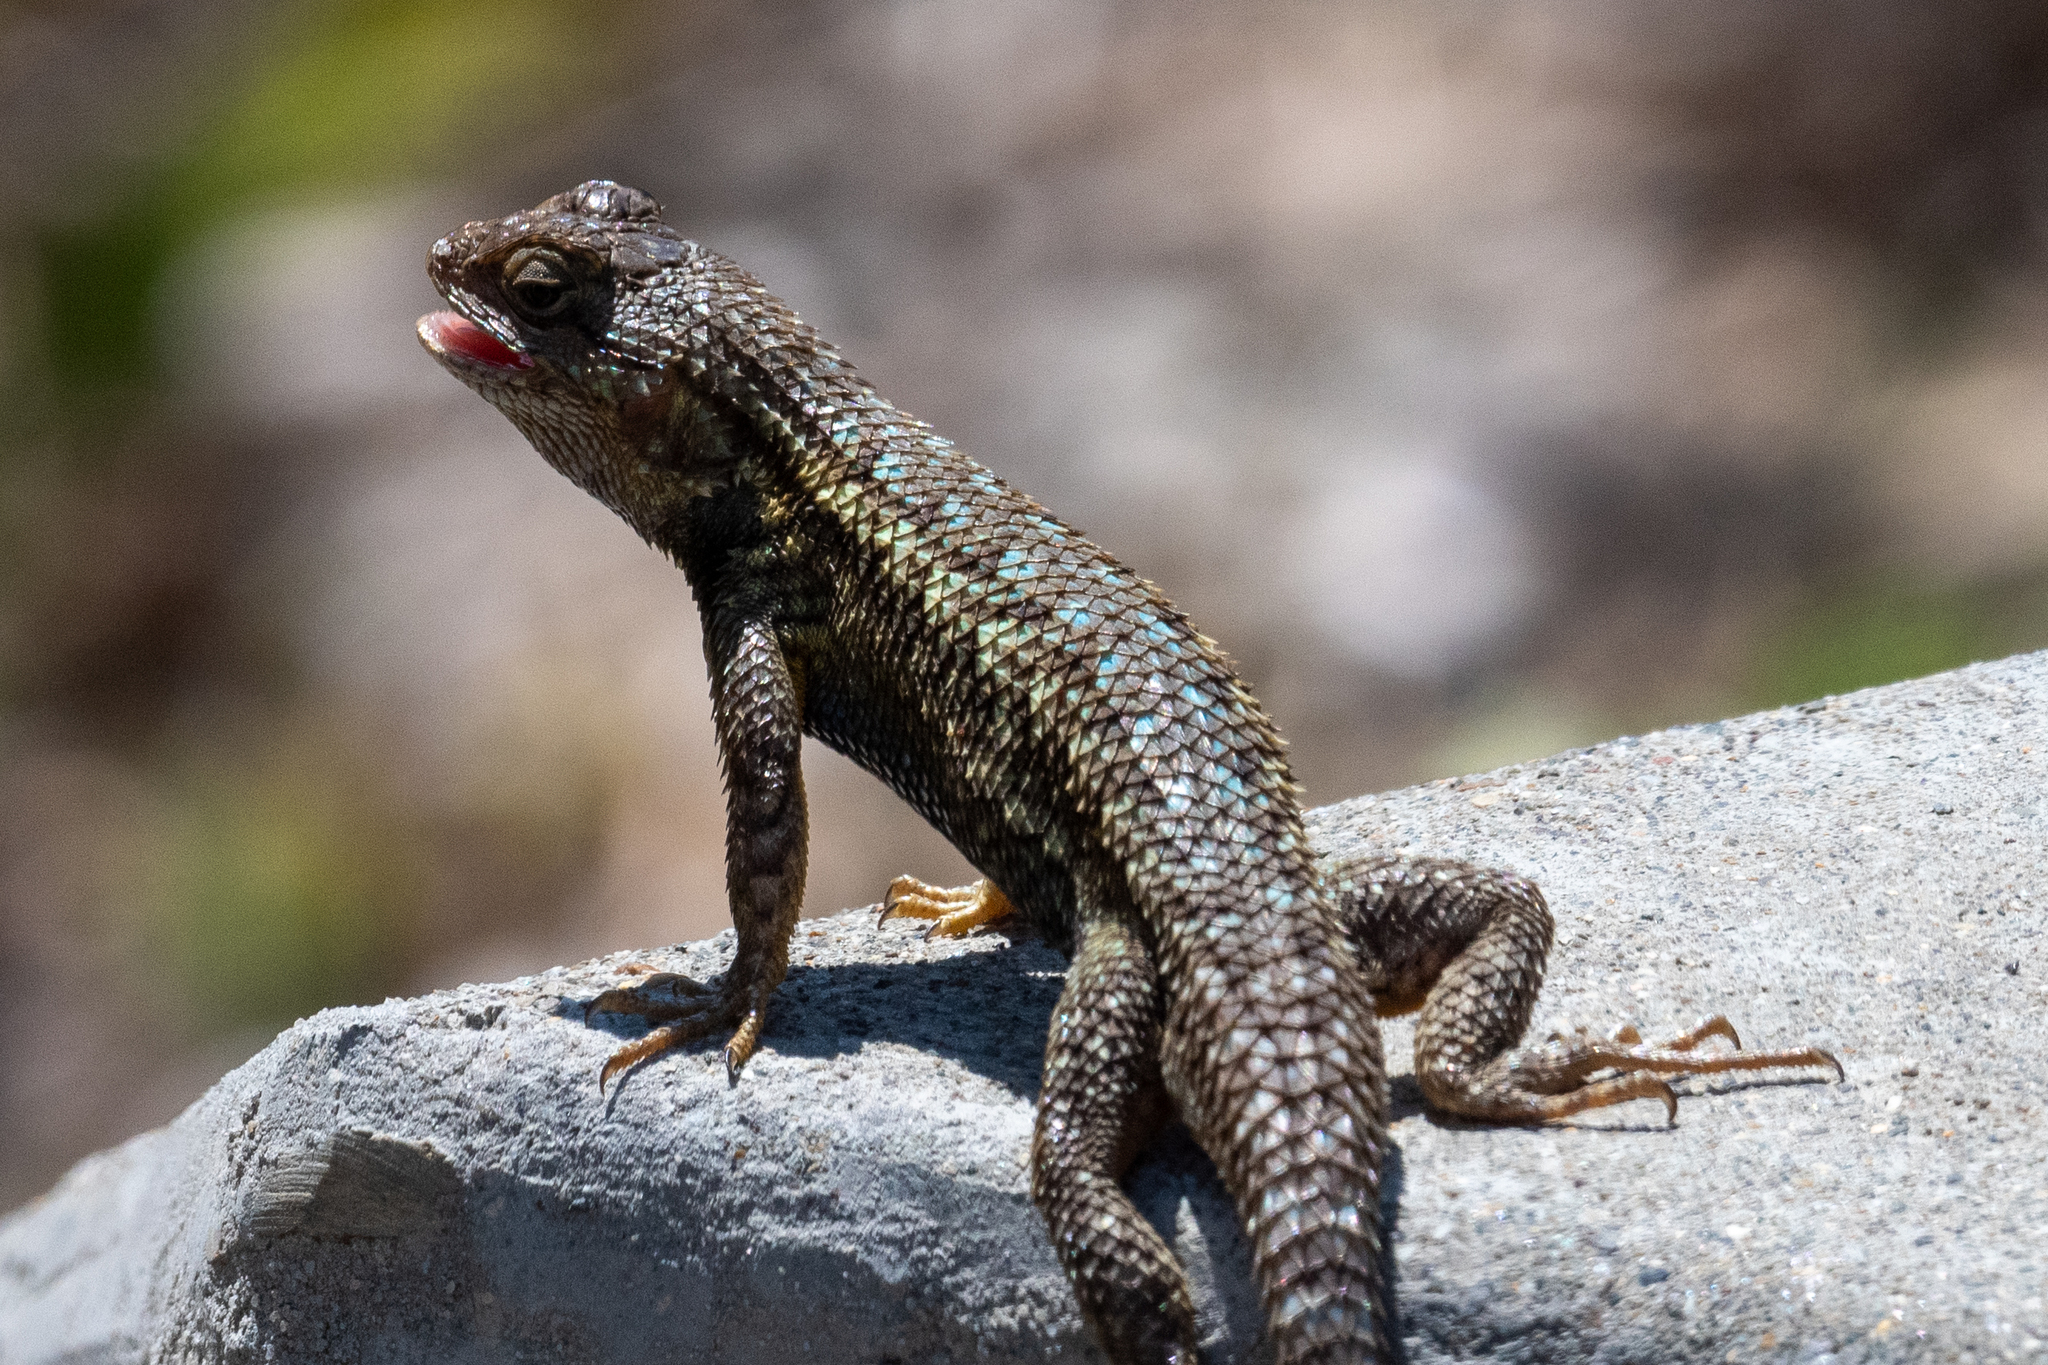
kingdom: Animalia
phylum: Chordata
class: Squamata
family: Phrynosomatidae
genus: Sceloporus
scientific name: Sceloporus occidentalis
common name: Western fence lizard
